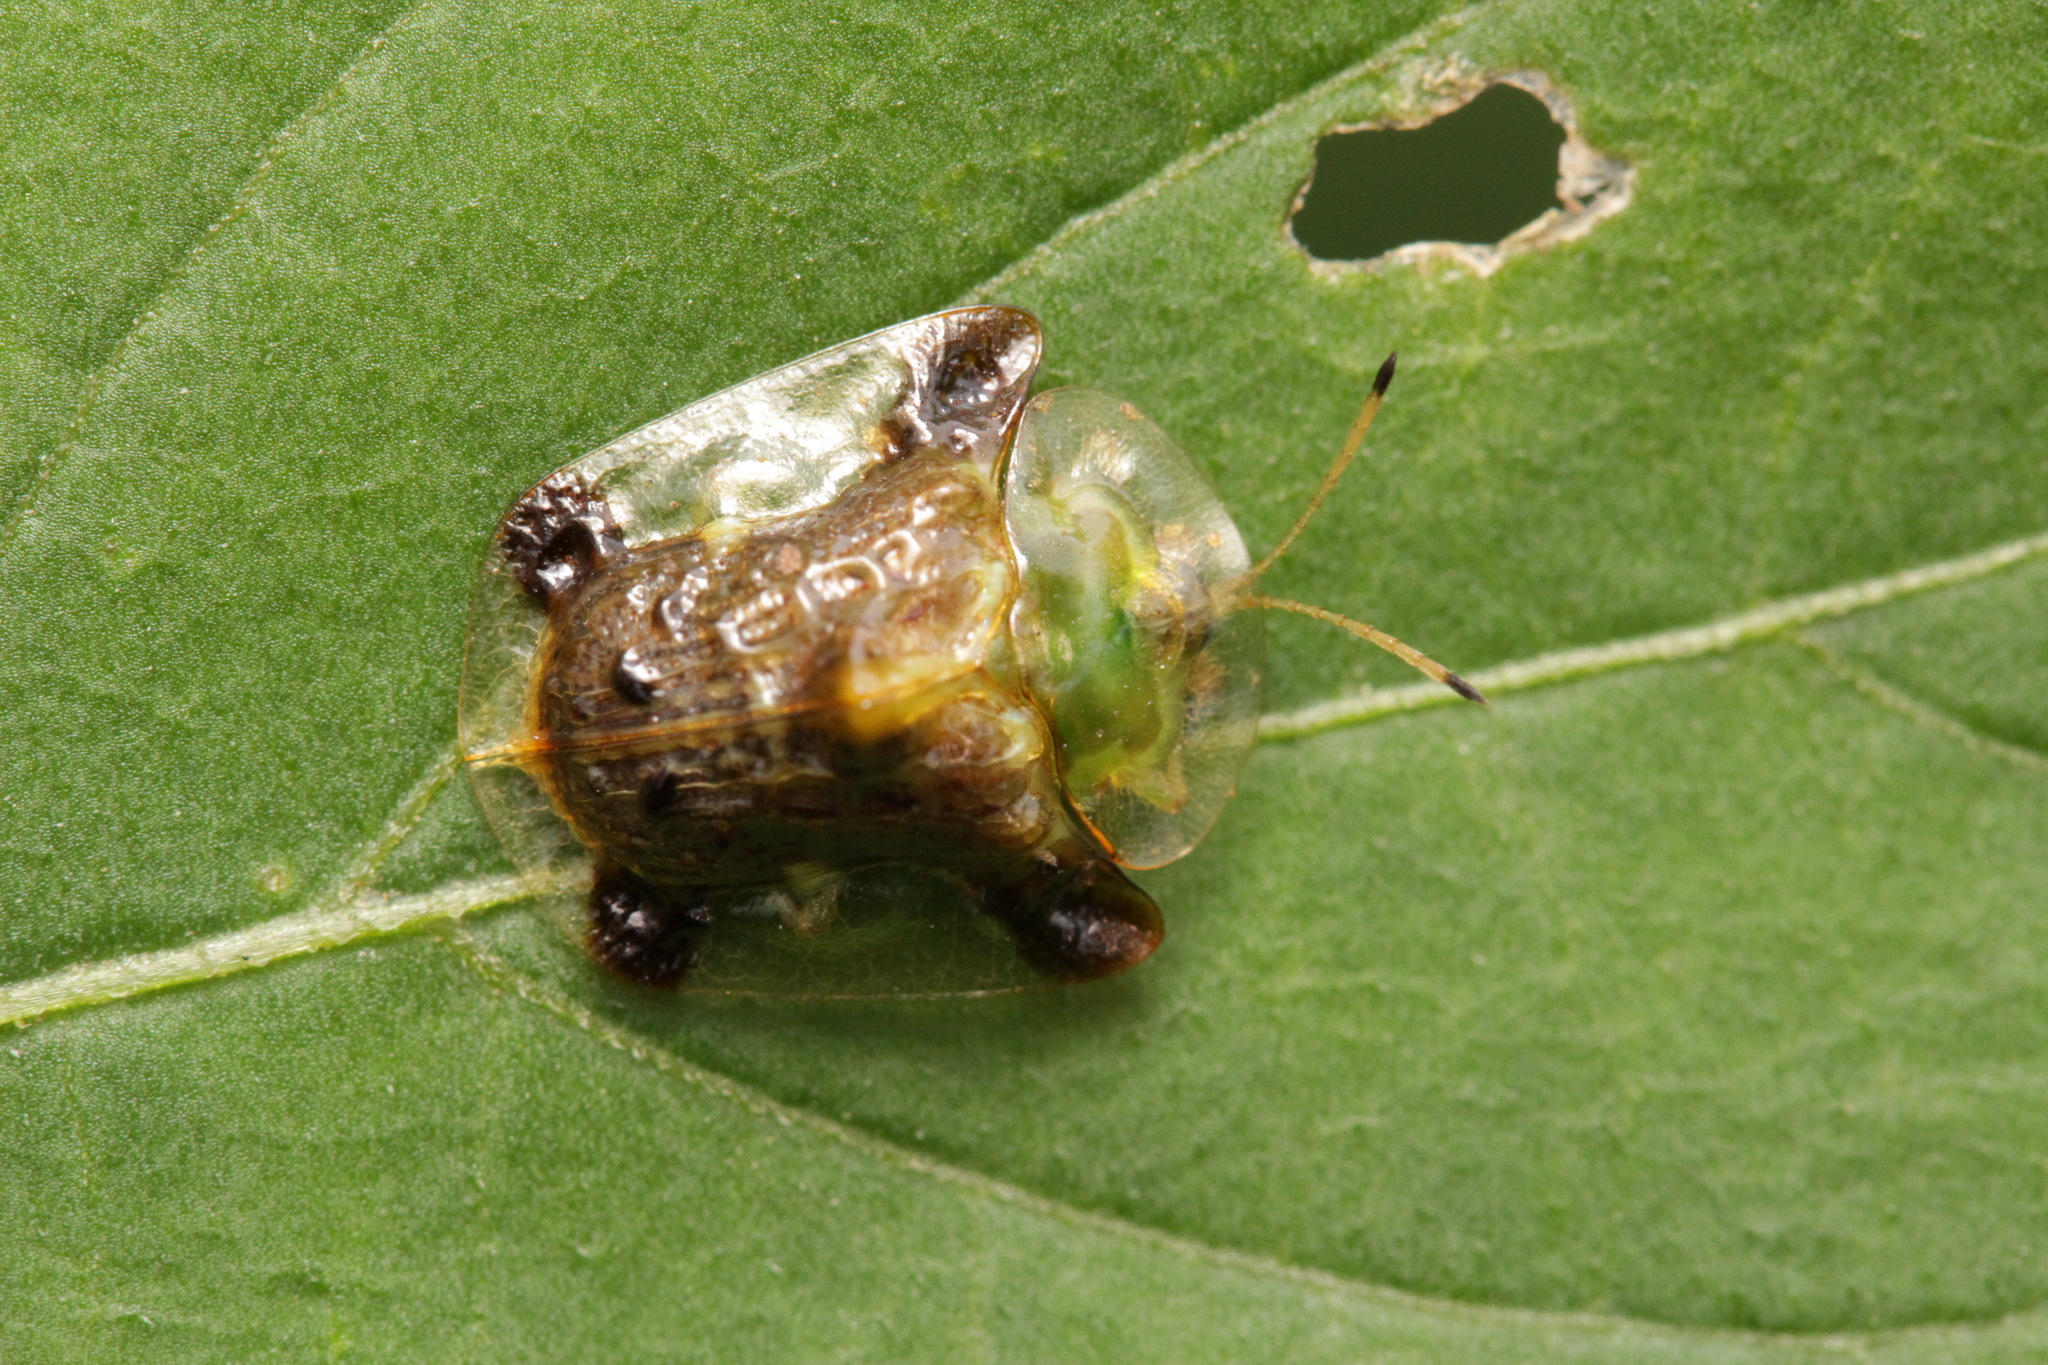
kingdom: Animalia
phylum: Arthropoda
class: Insecta
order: Coleoptera
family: Chrysomelidae
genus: Helocassis
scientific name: Helocassis testudinaria
